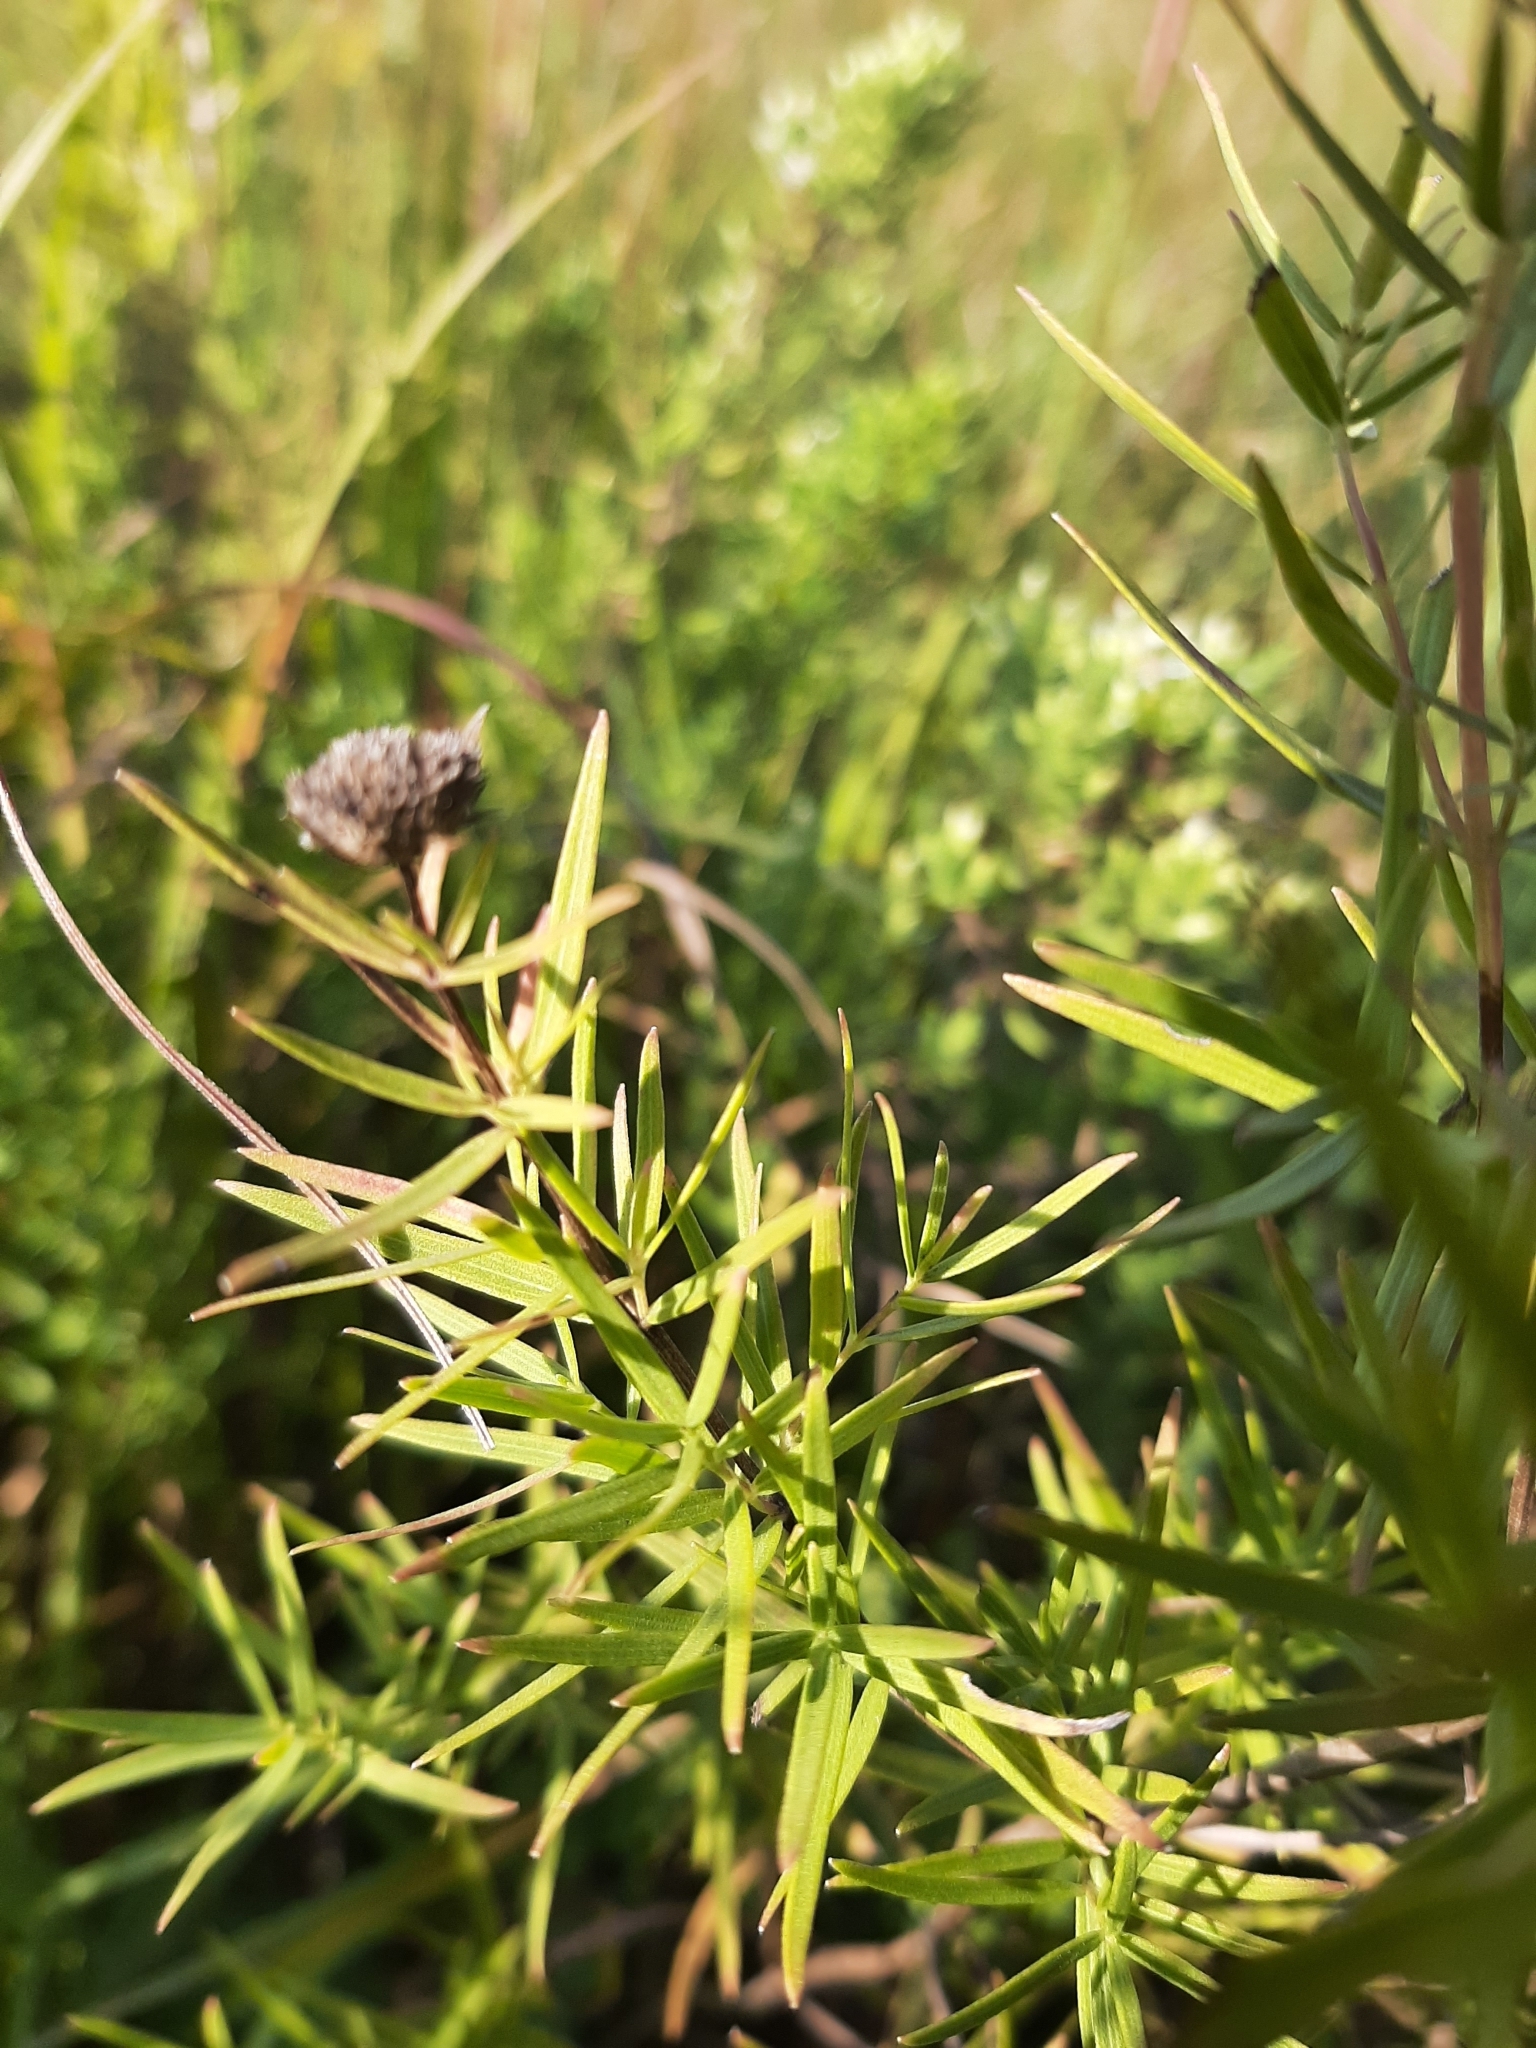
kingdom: Plantae
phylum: Tracheophyta
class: Magnoliopsida
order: Lamiales
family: Lamiaceae
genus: Pycnanthemum
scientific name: Pycnanthemum tenuifolium
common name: Narrow-leaf mountain-mint
